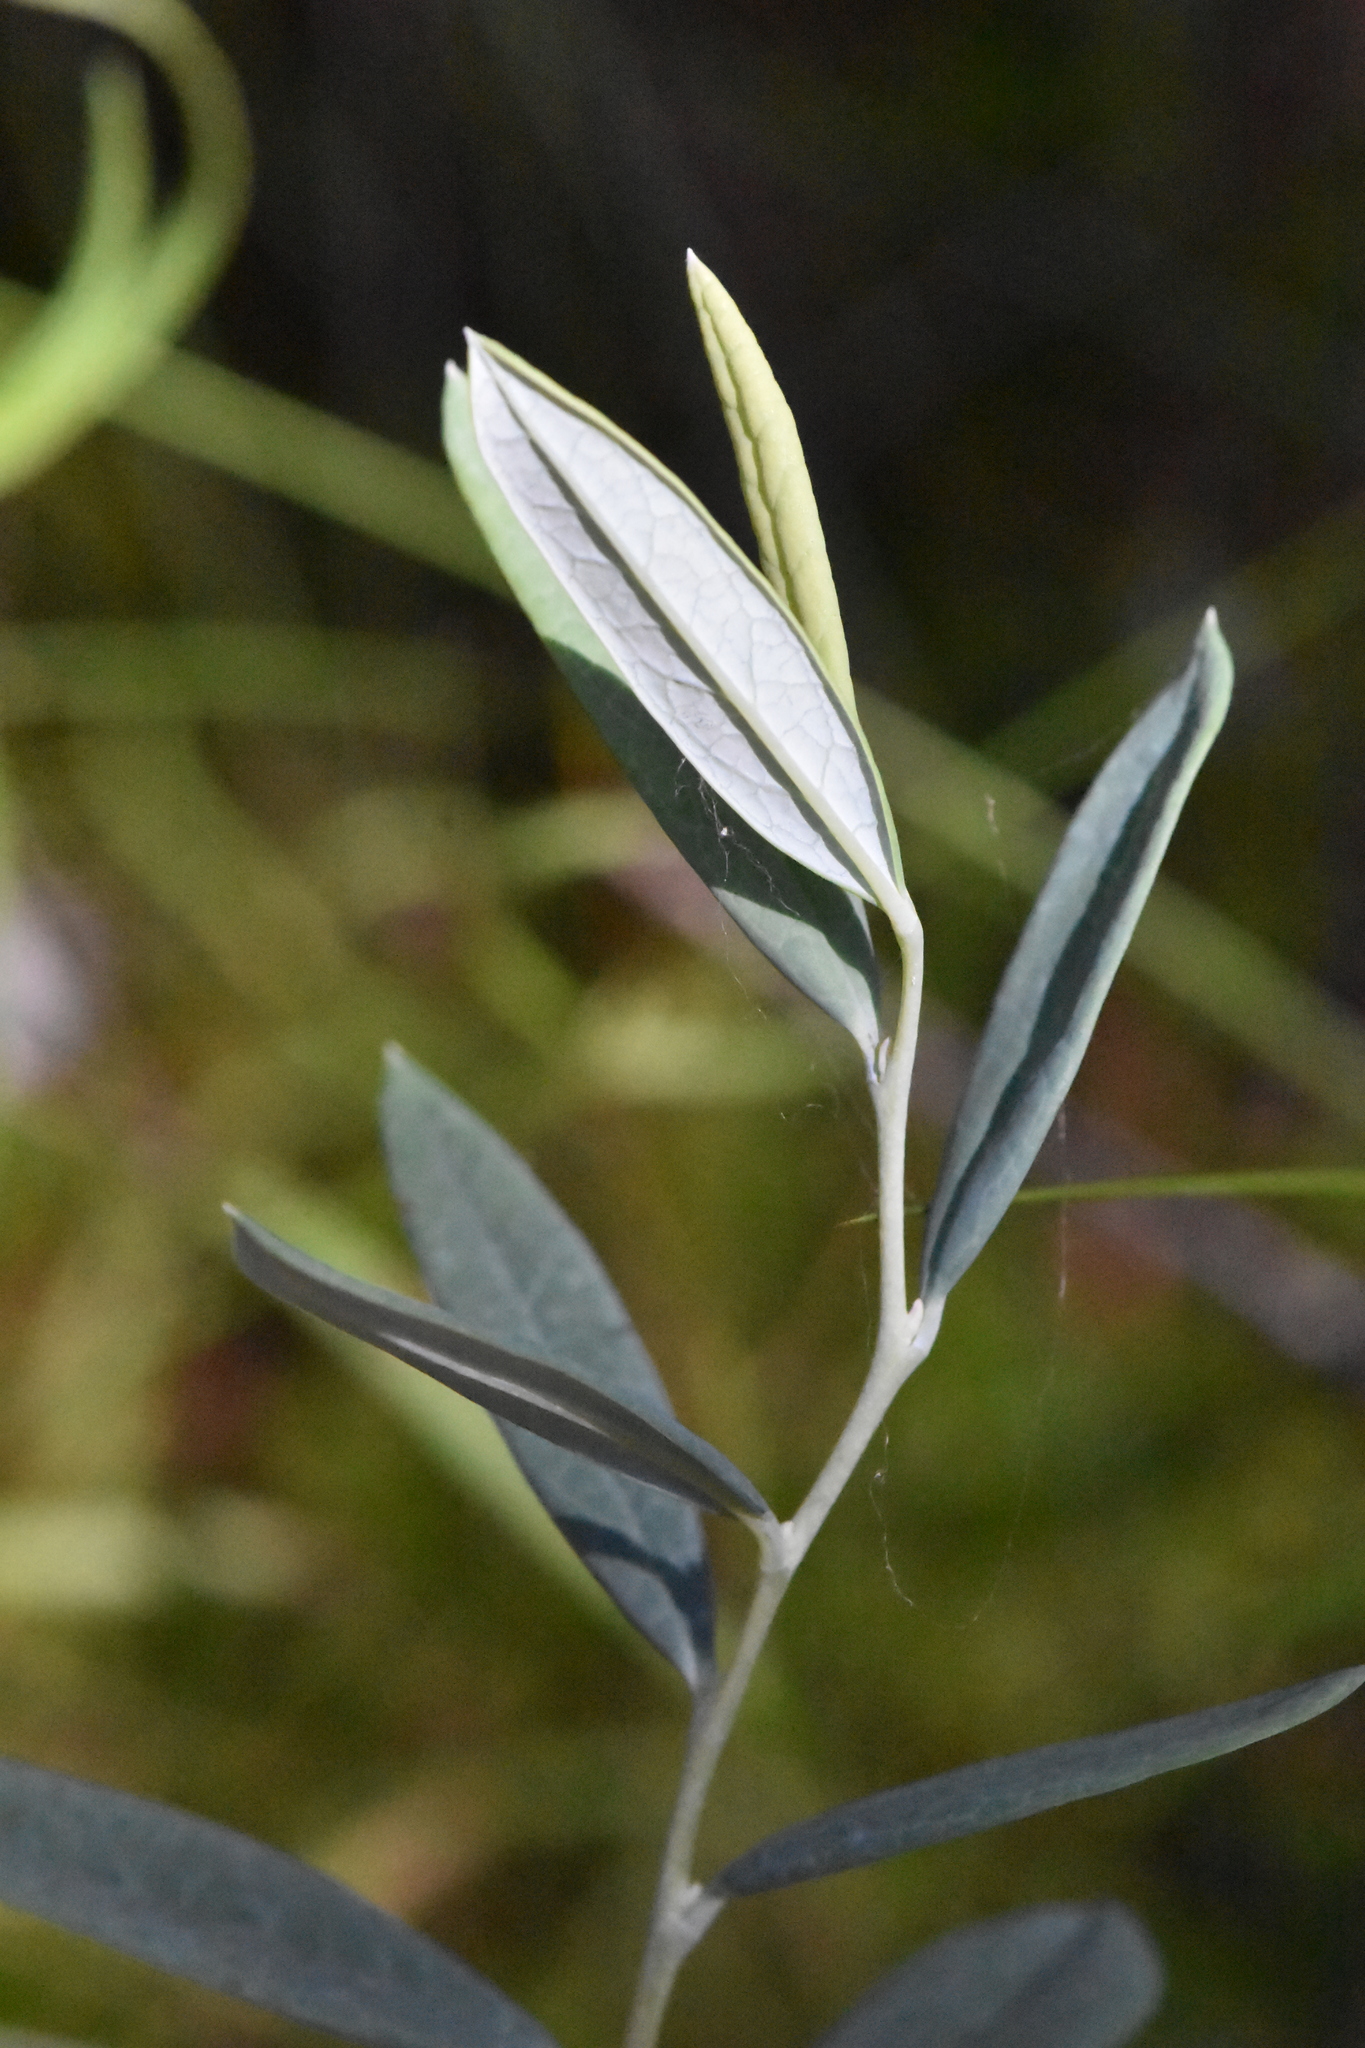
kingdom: Plantae
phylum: Tracheophyta
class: Magnoliopsida
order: Ericales
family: Ericaceae
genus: Andromeda
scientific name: Andromeda polifolia
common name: Bog-rosemary
